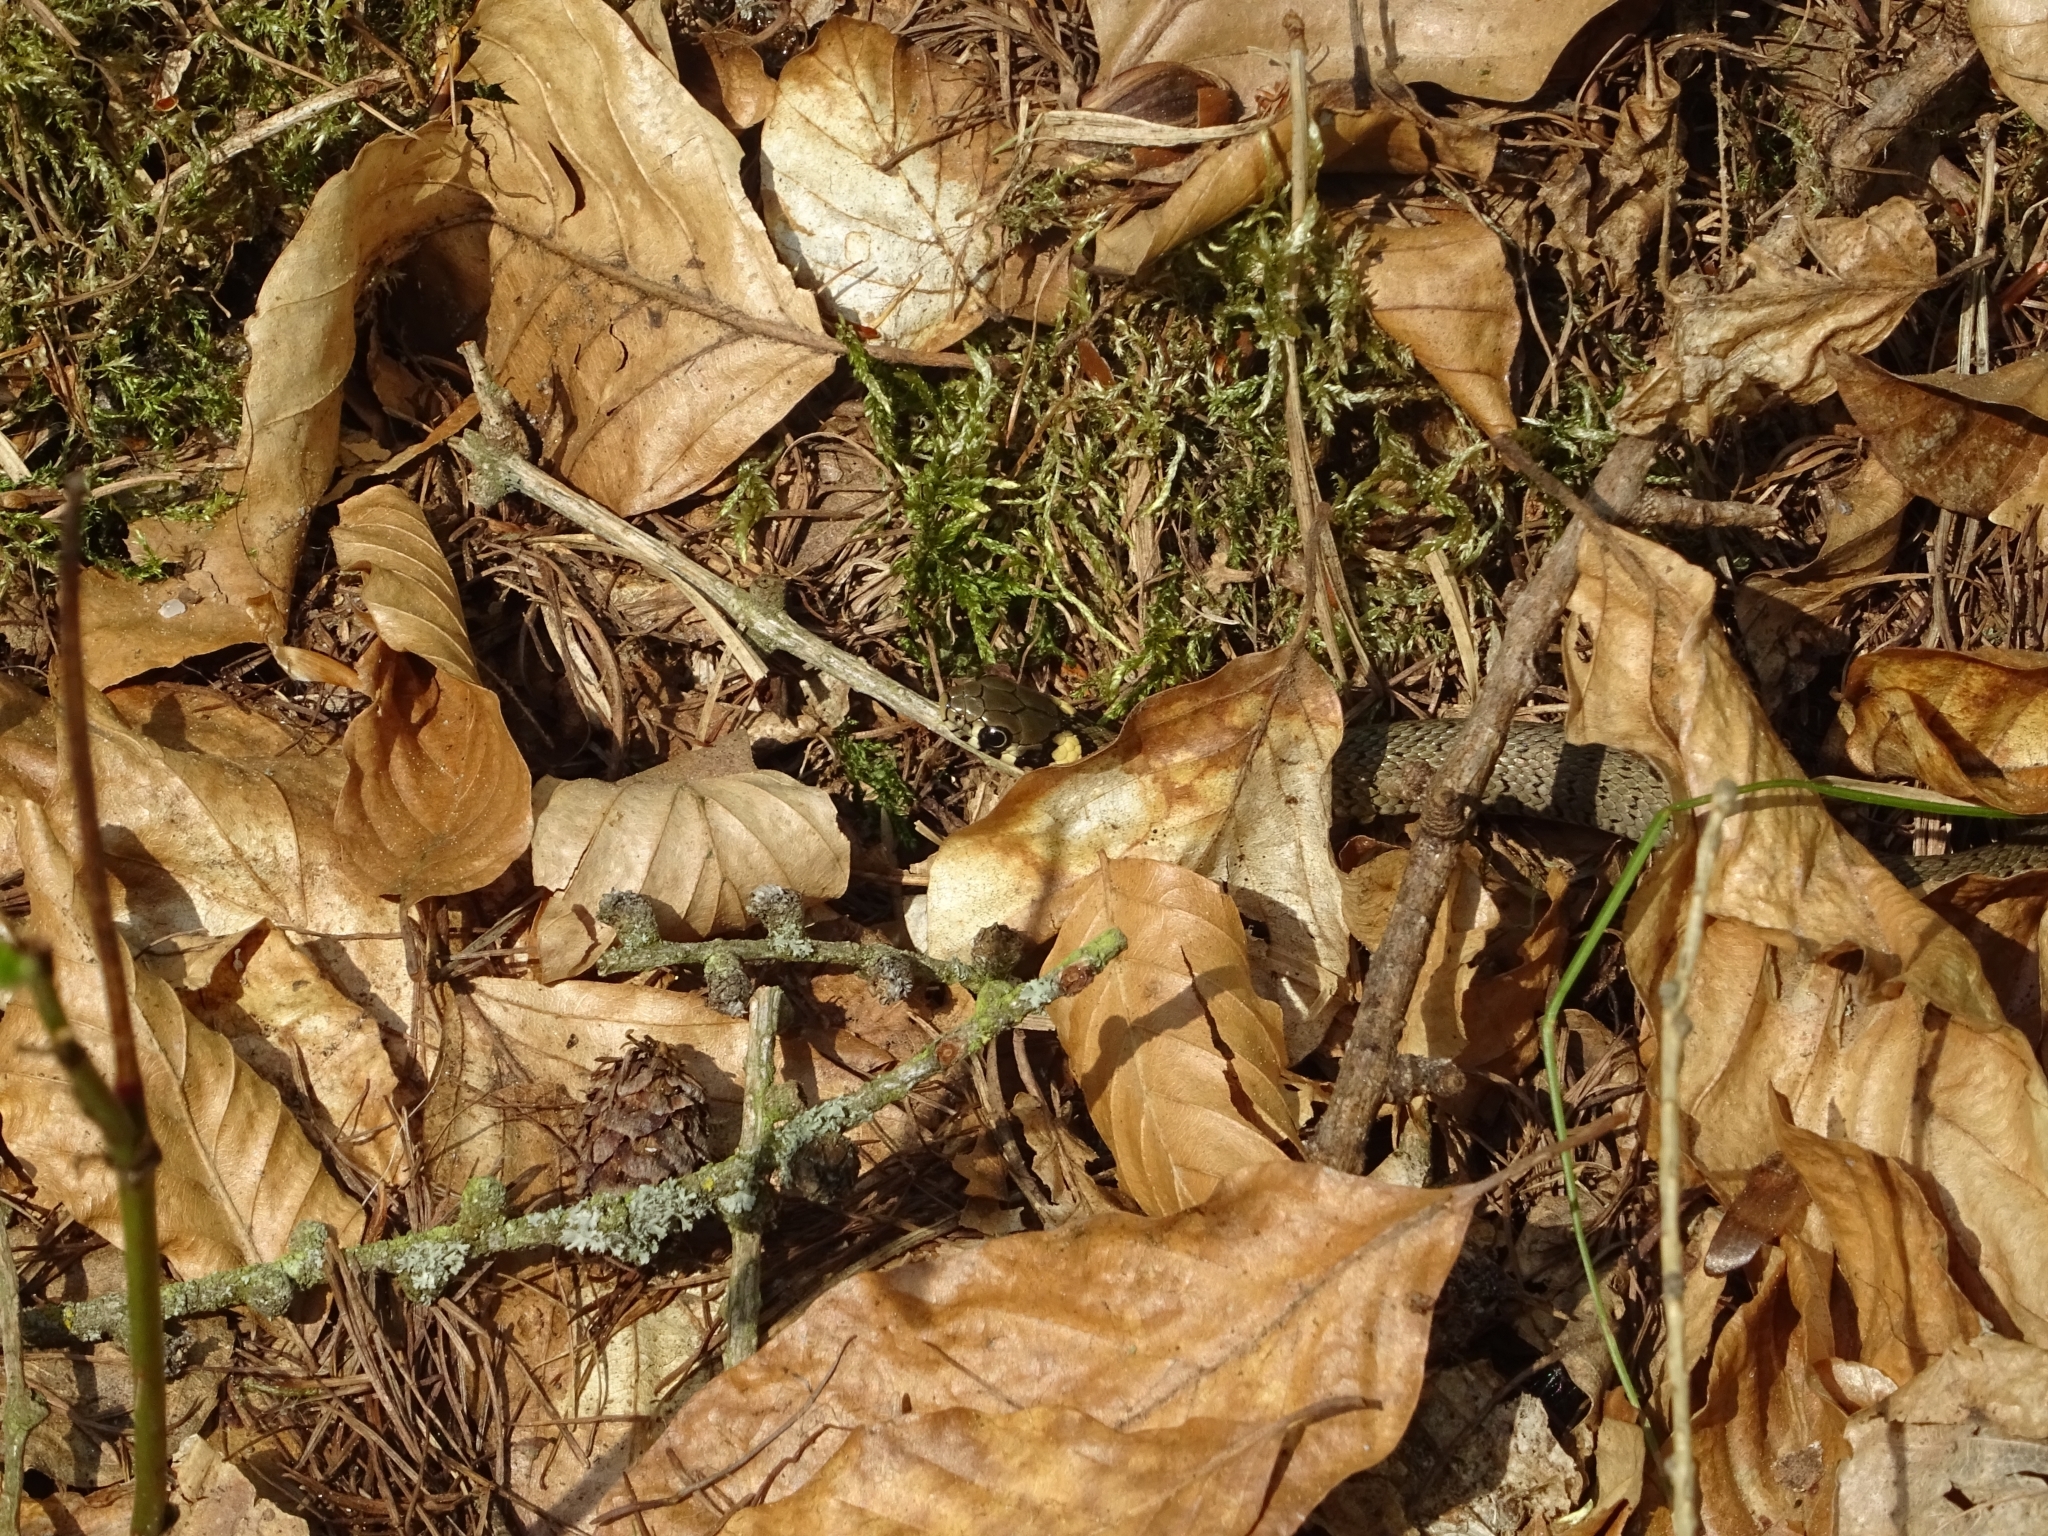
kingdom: Animalia
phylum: Chordata
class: Squamata
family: Colubridae
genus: Natrix
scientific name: Natrix natrix
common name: Grass snake
